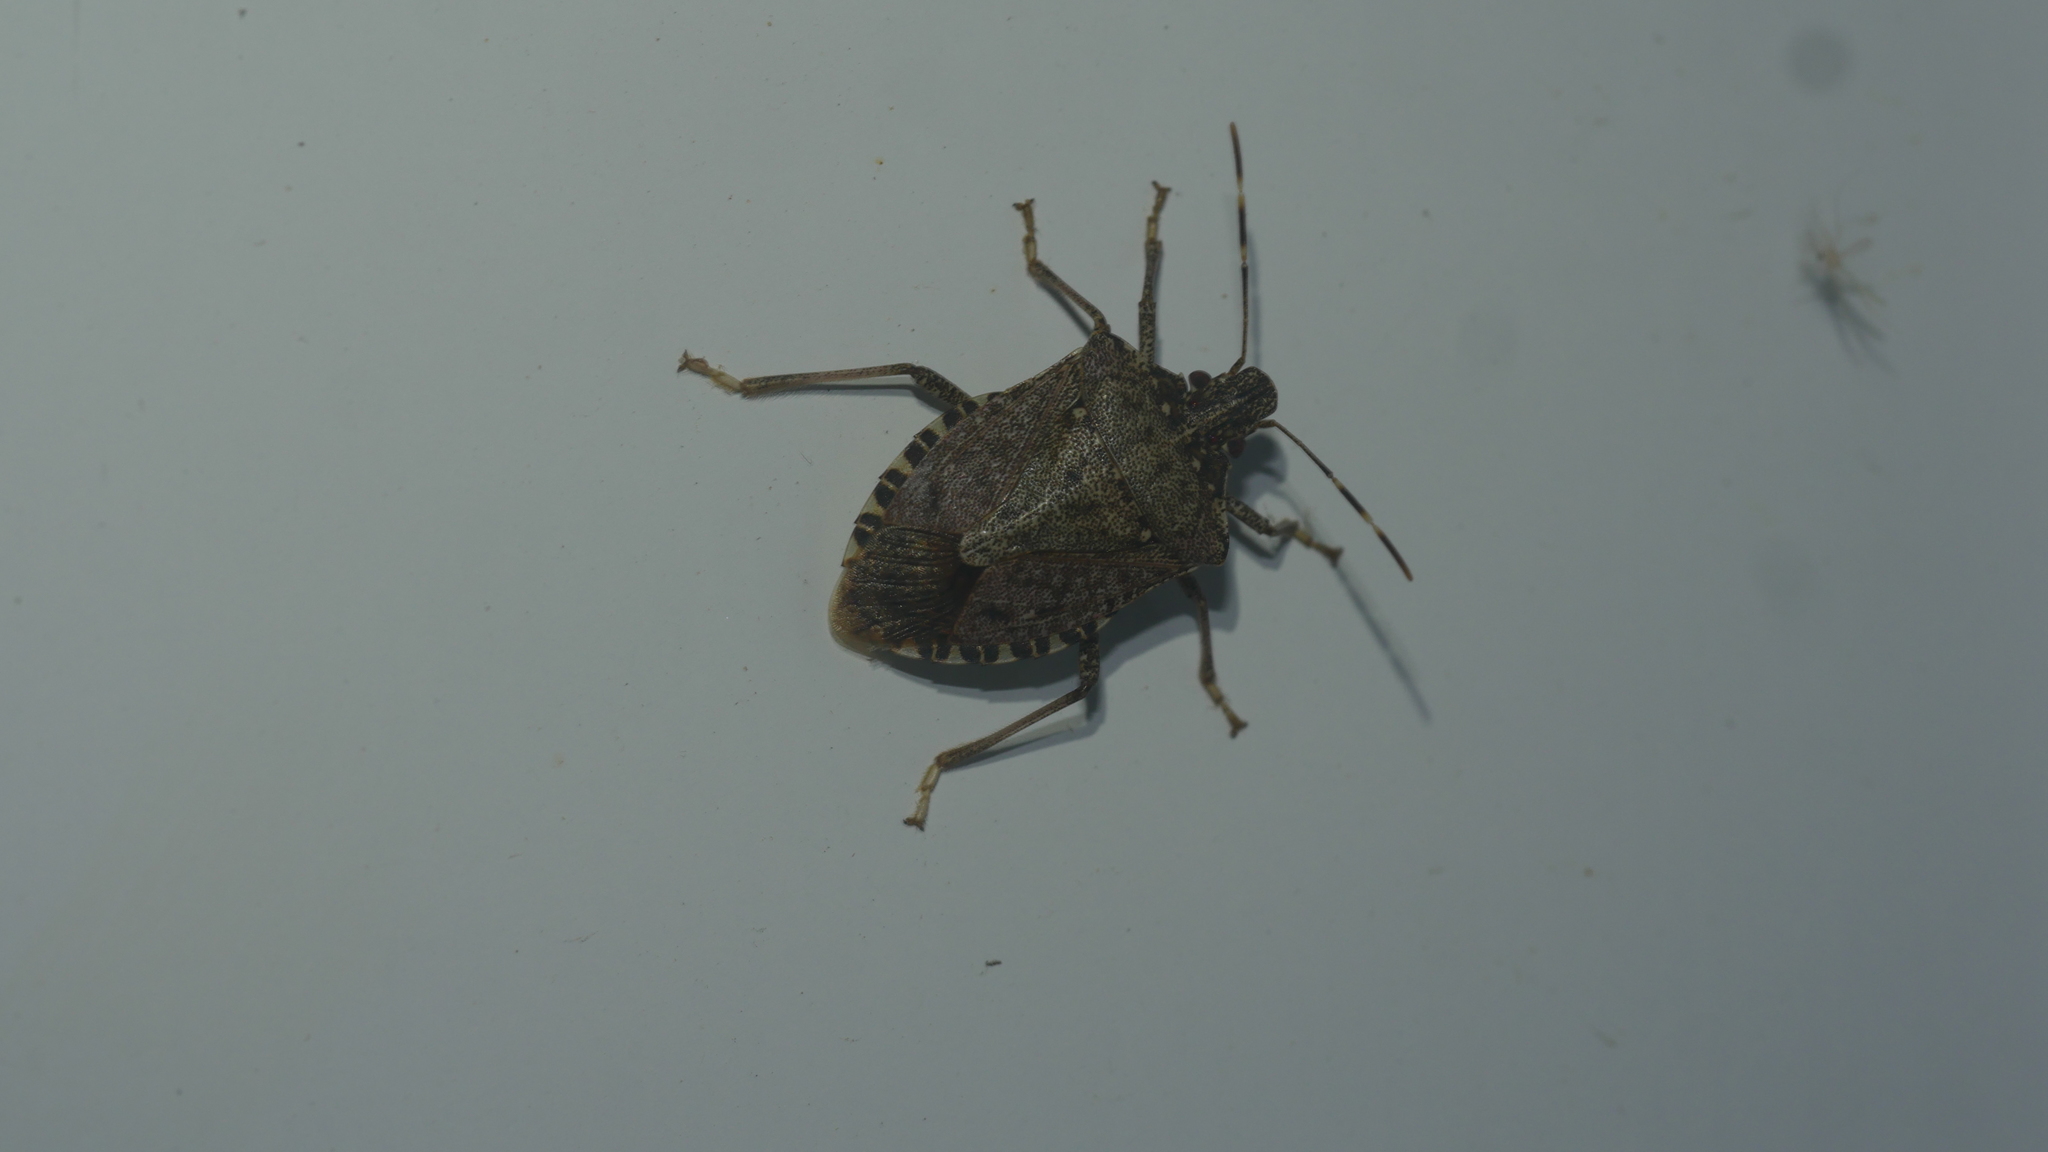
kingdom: Animalia
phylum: Arthropoda
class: Insecta
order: Hemiptera
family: Pentatomidae
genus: Halyomorpha
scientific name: Halyomorpha halys
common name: Brown marmorated stink bug
